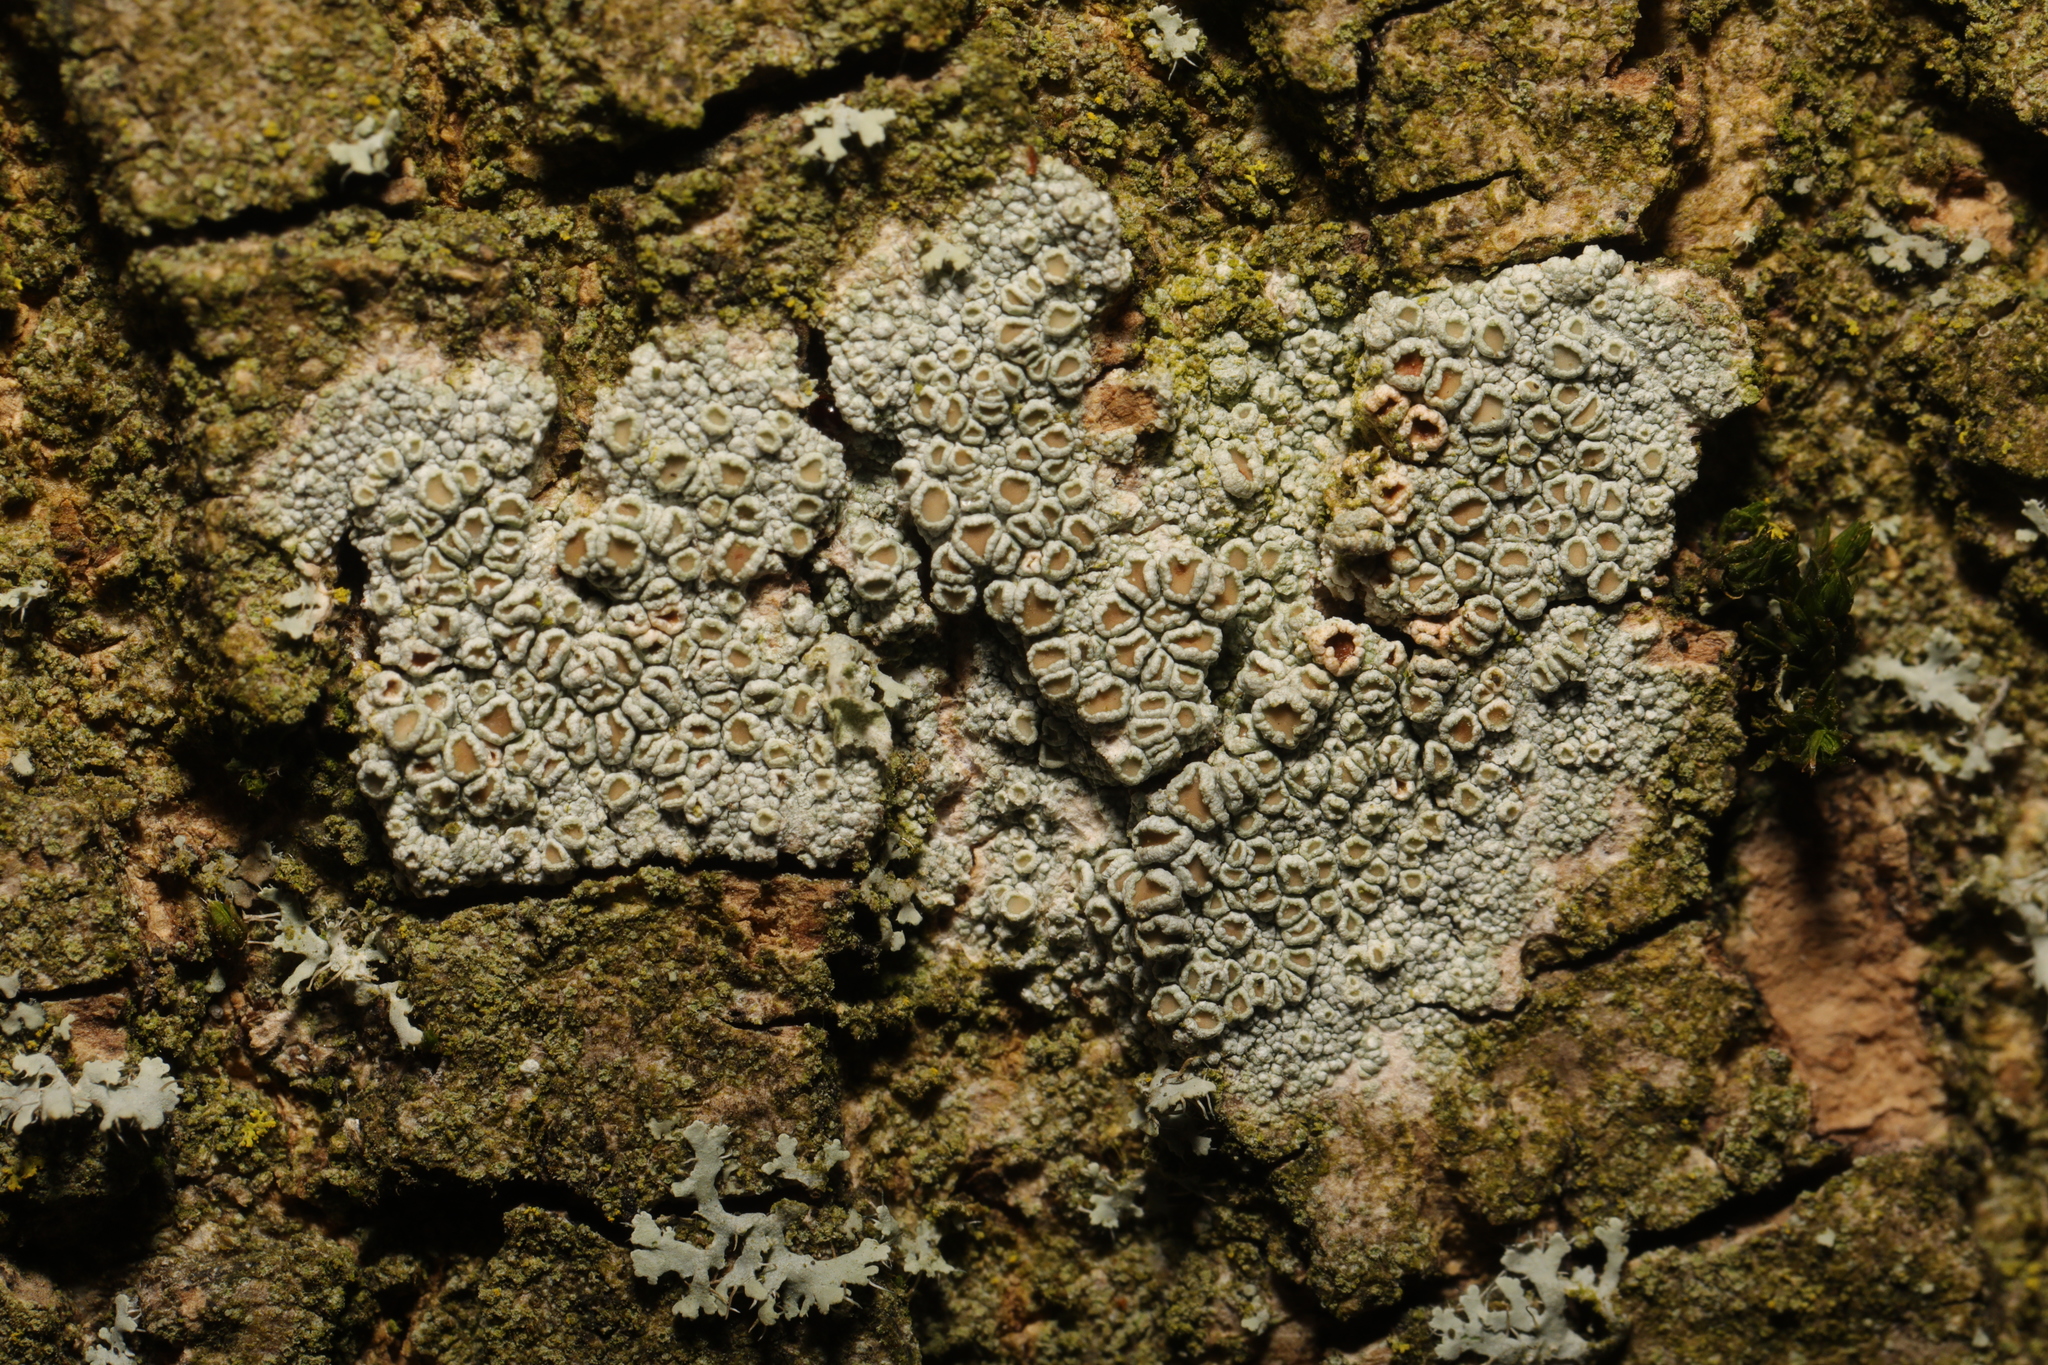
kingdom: Fungi
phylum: Ascomycota
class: Lecanoromycetes
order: Lecanorales
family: Lecanoraceae
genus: Lecanora
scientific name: Lecanora chlarotera
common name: Brown rim-lichen
